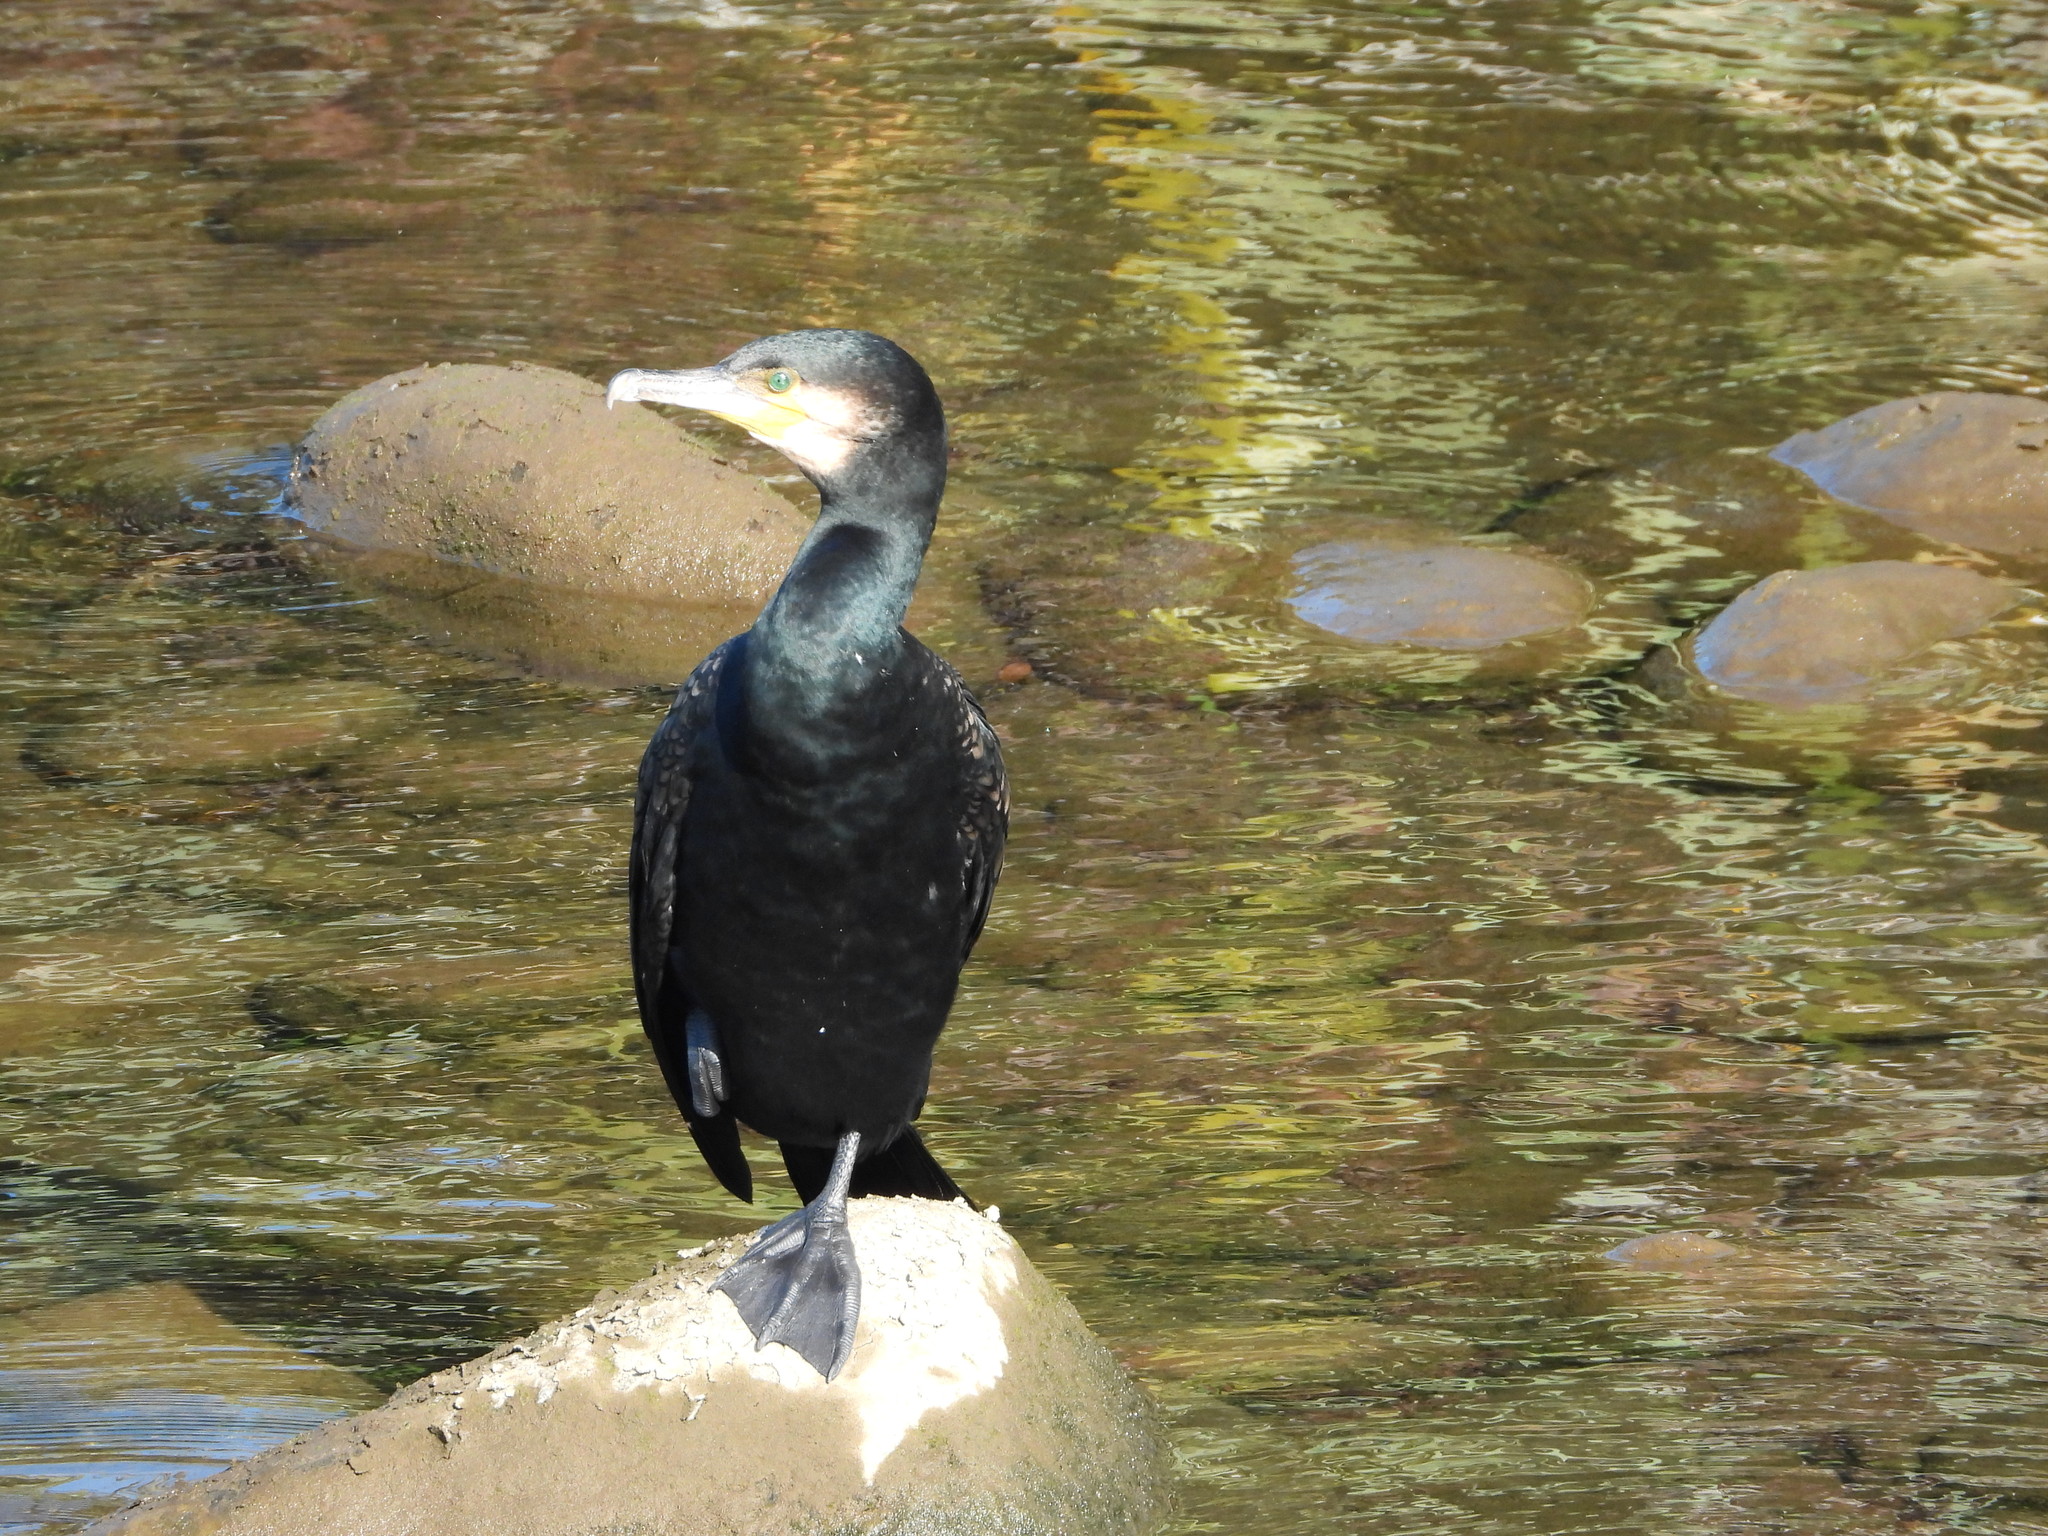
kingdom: Animalia
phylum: Chordata
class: Aves
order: Suliformes
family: Phalacrocoracidae
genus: Phalacrocorax
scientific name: Phalacrocorax carbo
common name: Great cormorant
